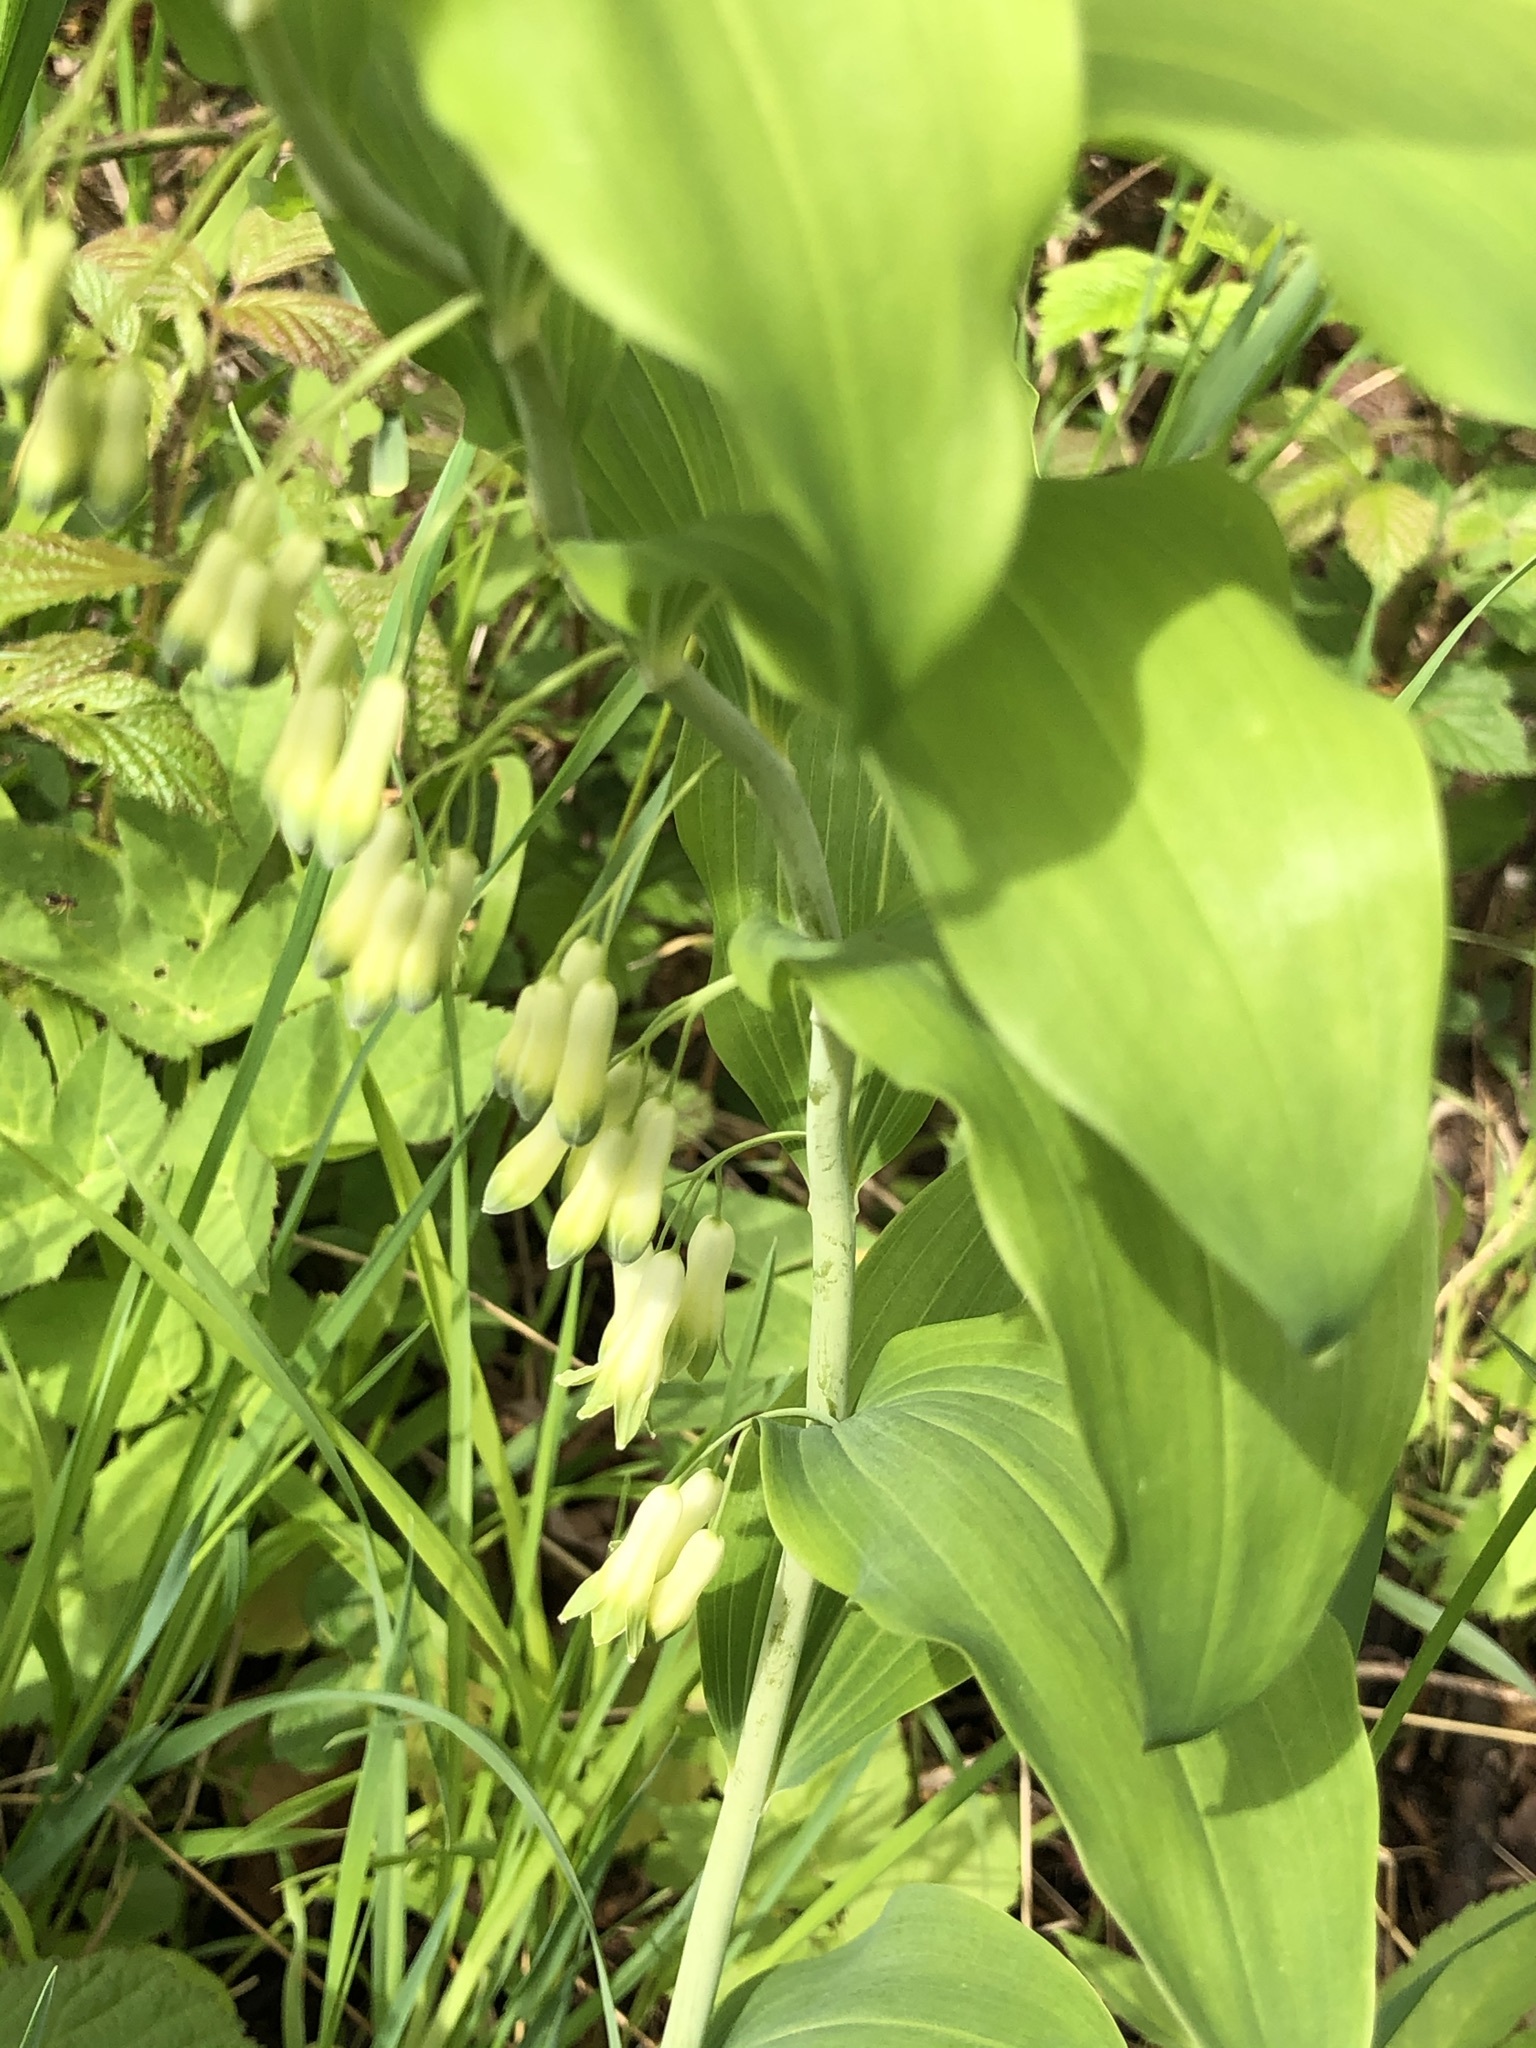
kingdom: Plantae
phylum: Tracheophyta
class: Liliopsida
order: Asparagales
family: Asparagaceae
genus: Polygonatum
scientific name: Polygonatum multiflorum
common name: Solomon's-seal
